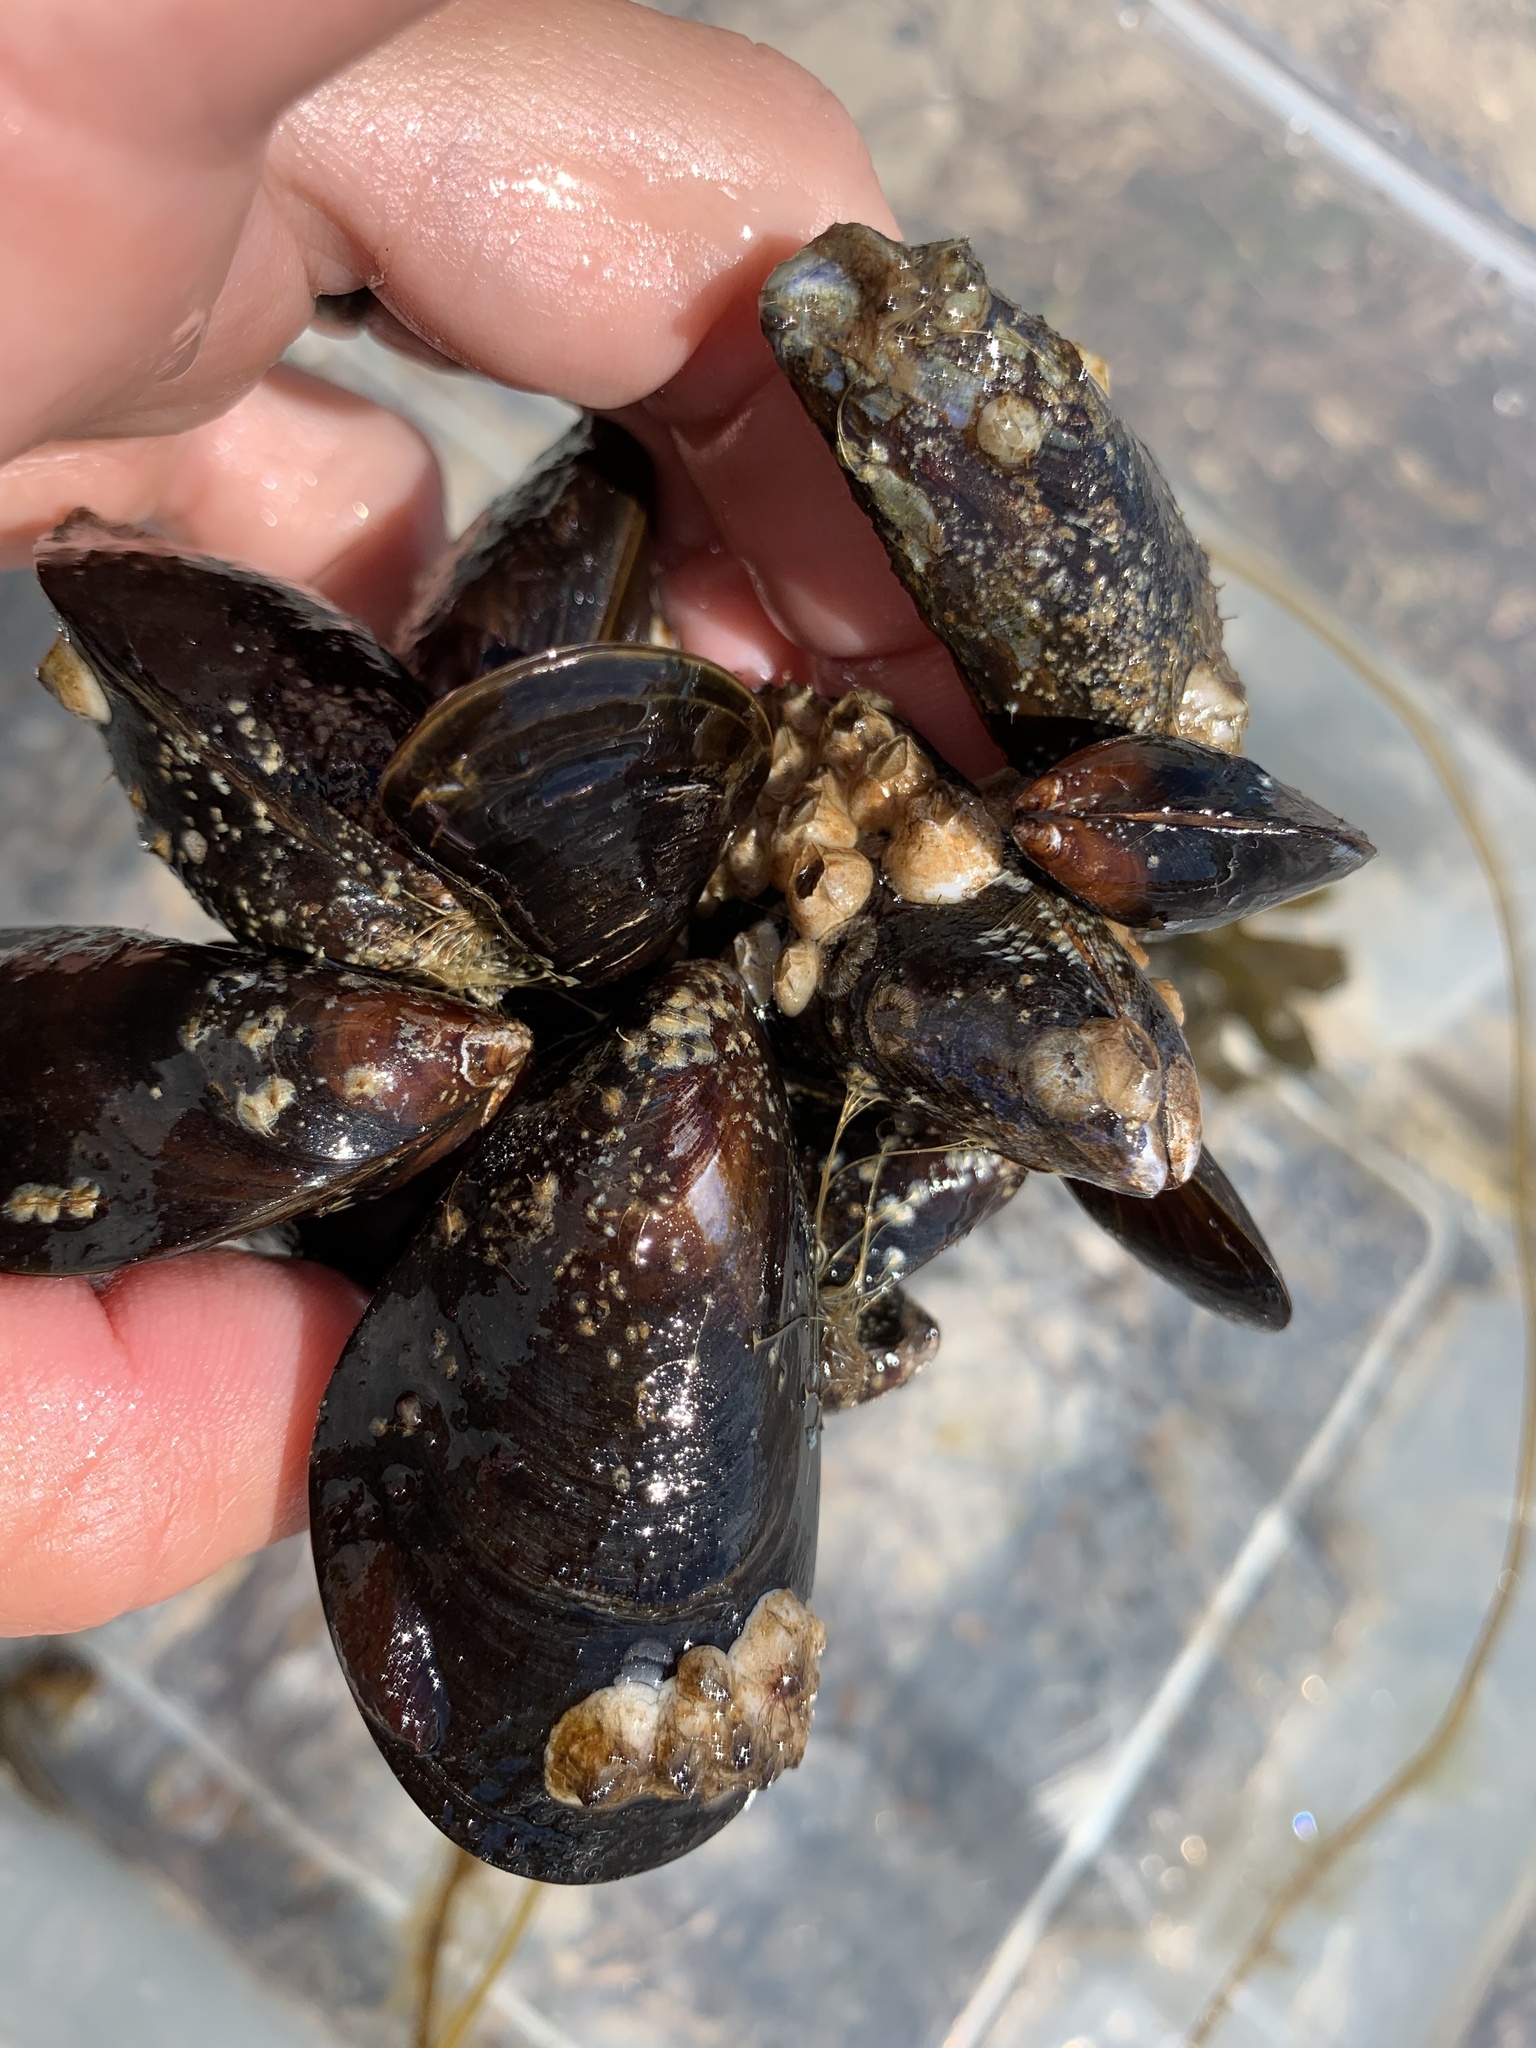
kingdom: Animalia
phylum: Mollusca
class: Bivalvia
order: Mytilida
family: Mytilidae
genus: Mytilus
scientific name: Mytilus edulis
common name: Blue mussel
